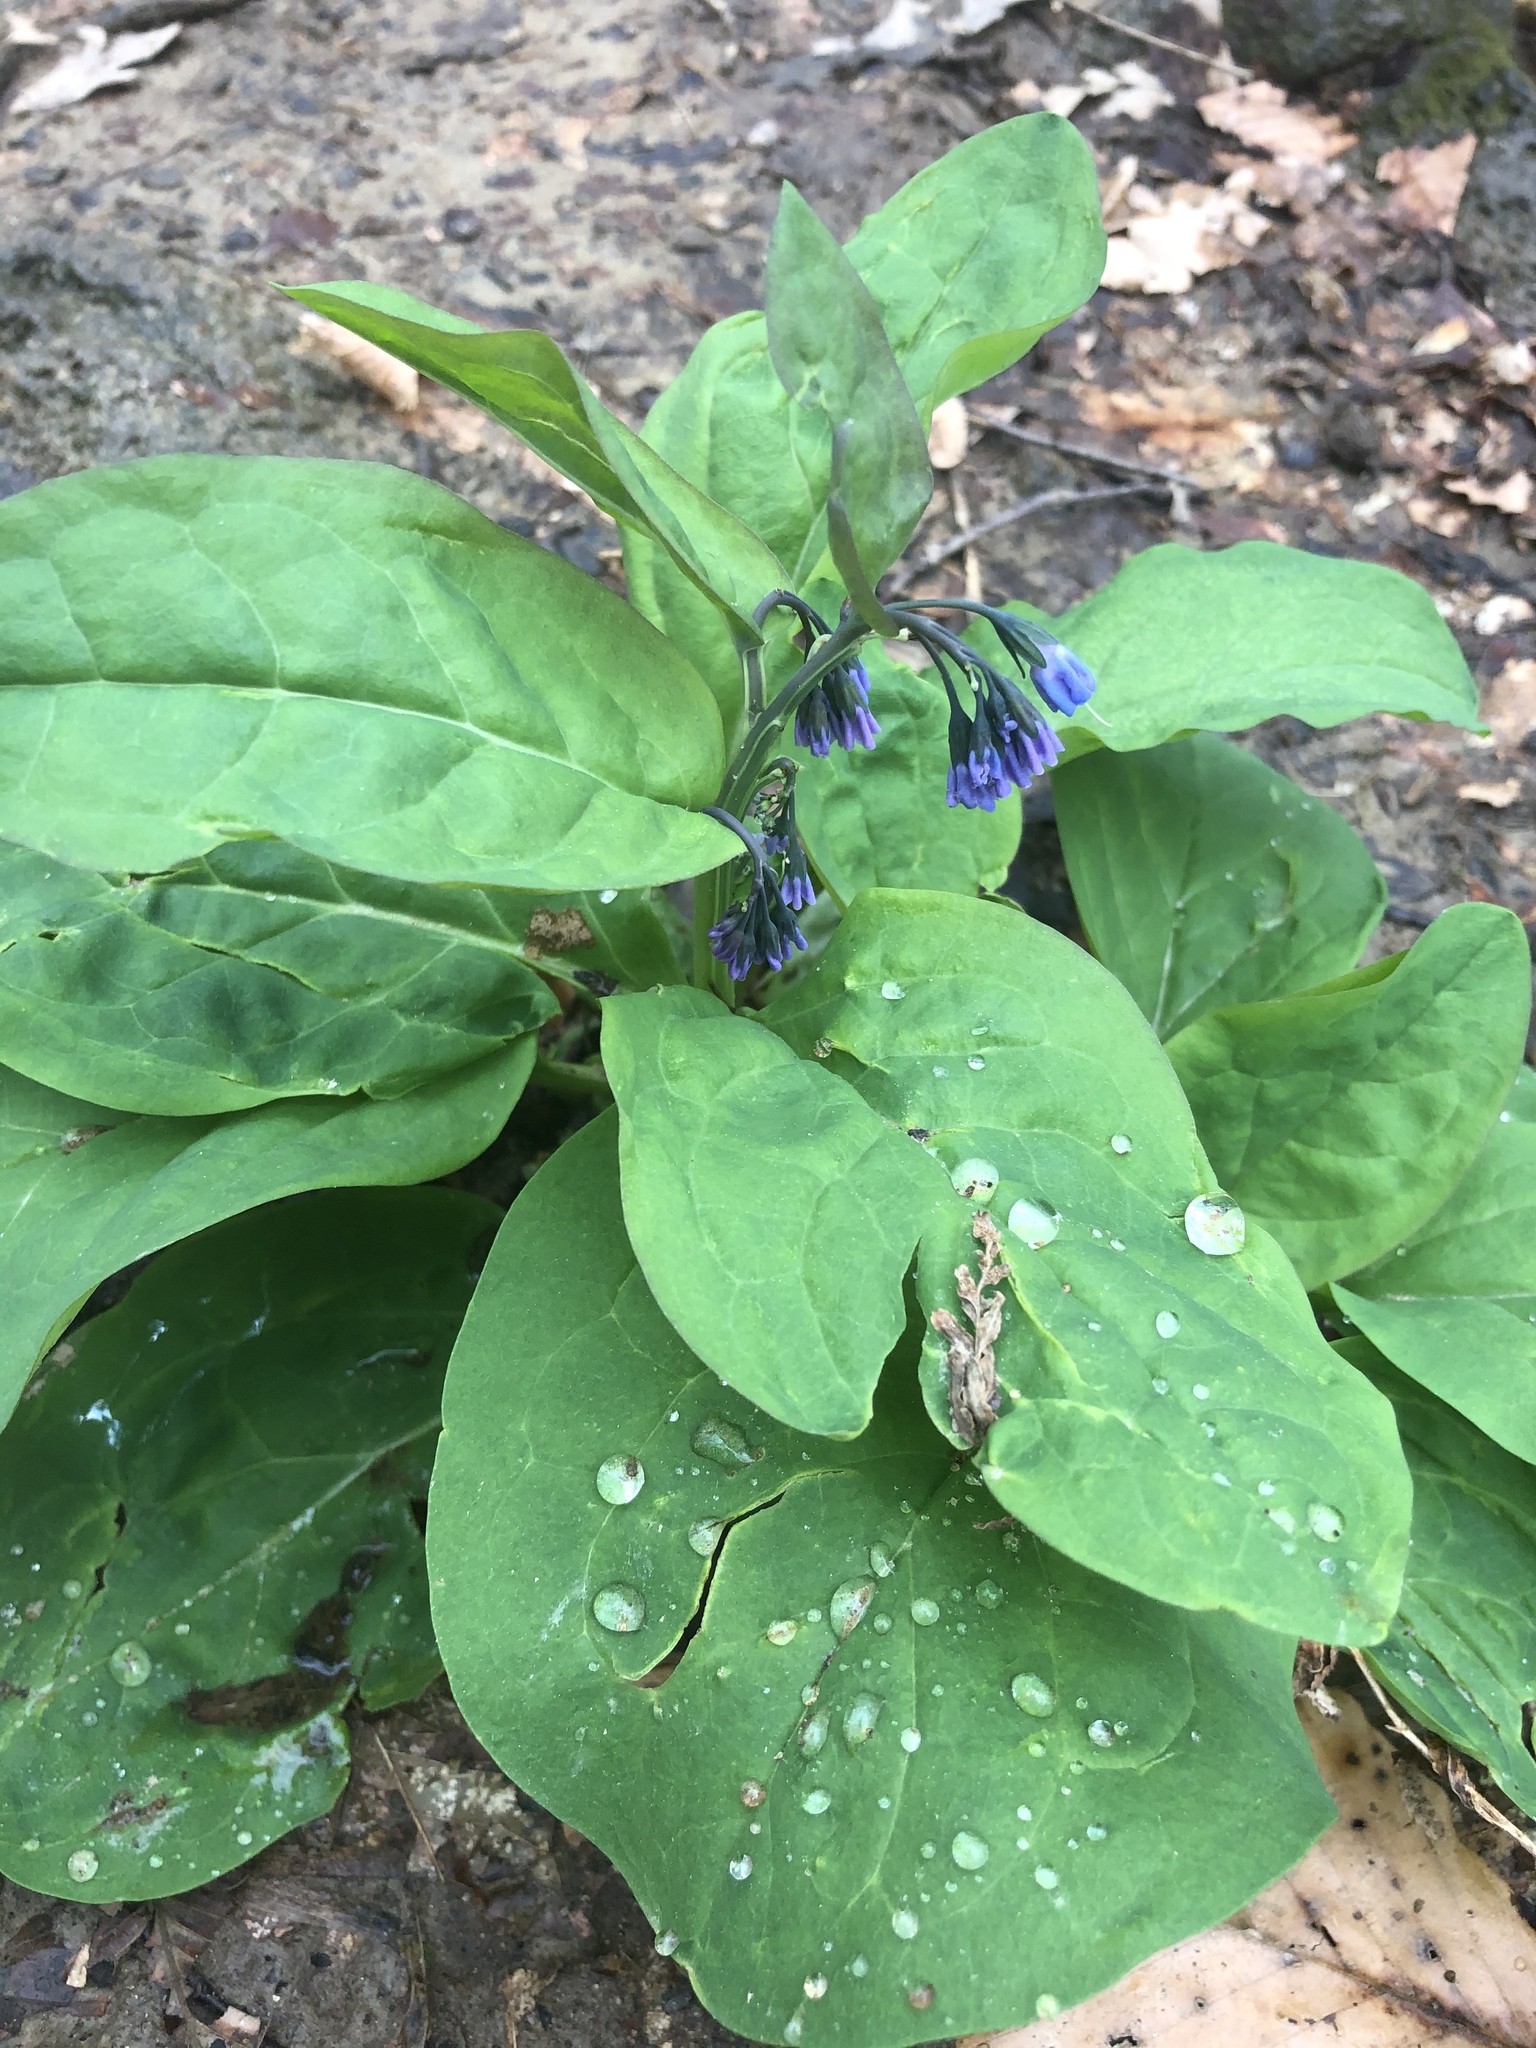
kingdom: Plantae
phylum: Tracheophyta
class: Magnoliopsida
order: Boraginales
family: Boraginaceae
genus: Mertensia
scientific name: Mertensia virginica
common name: Virginia bluebells
